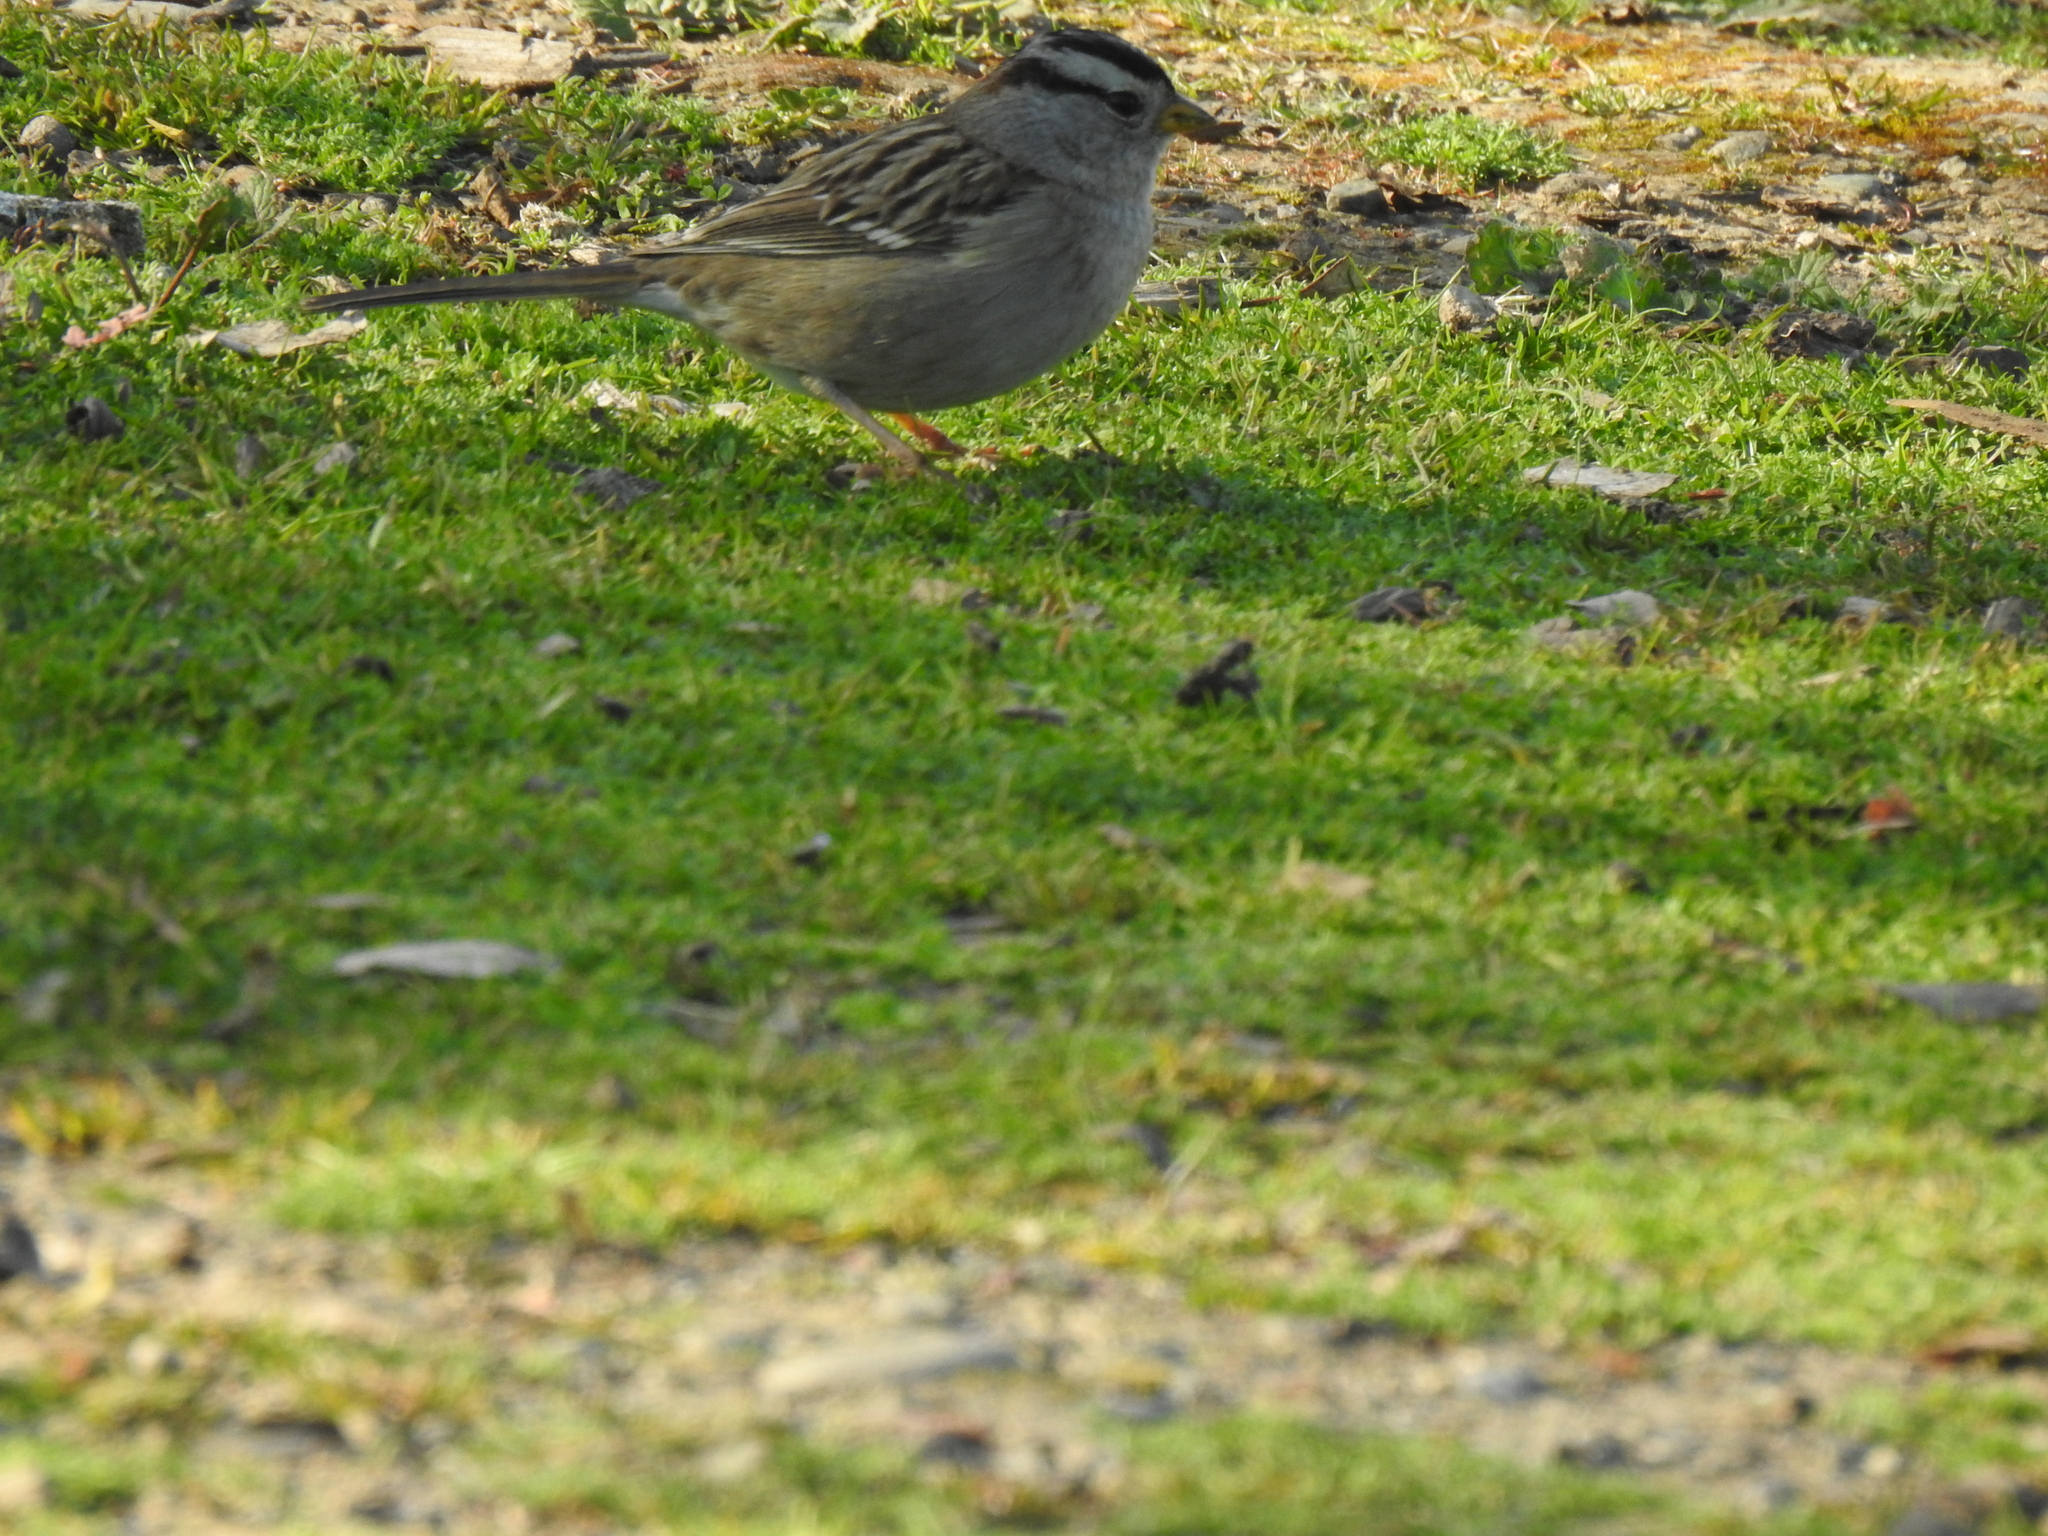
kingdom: Animalia
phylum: Chordata
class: Aves
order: Passeriformes
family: Passerellidae
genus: Zonotrichia
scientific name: Zonotrichia leucophrys
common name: White-crowned sparrow
